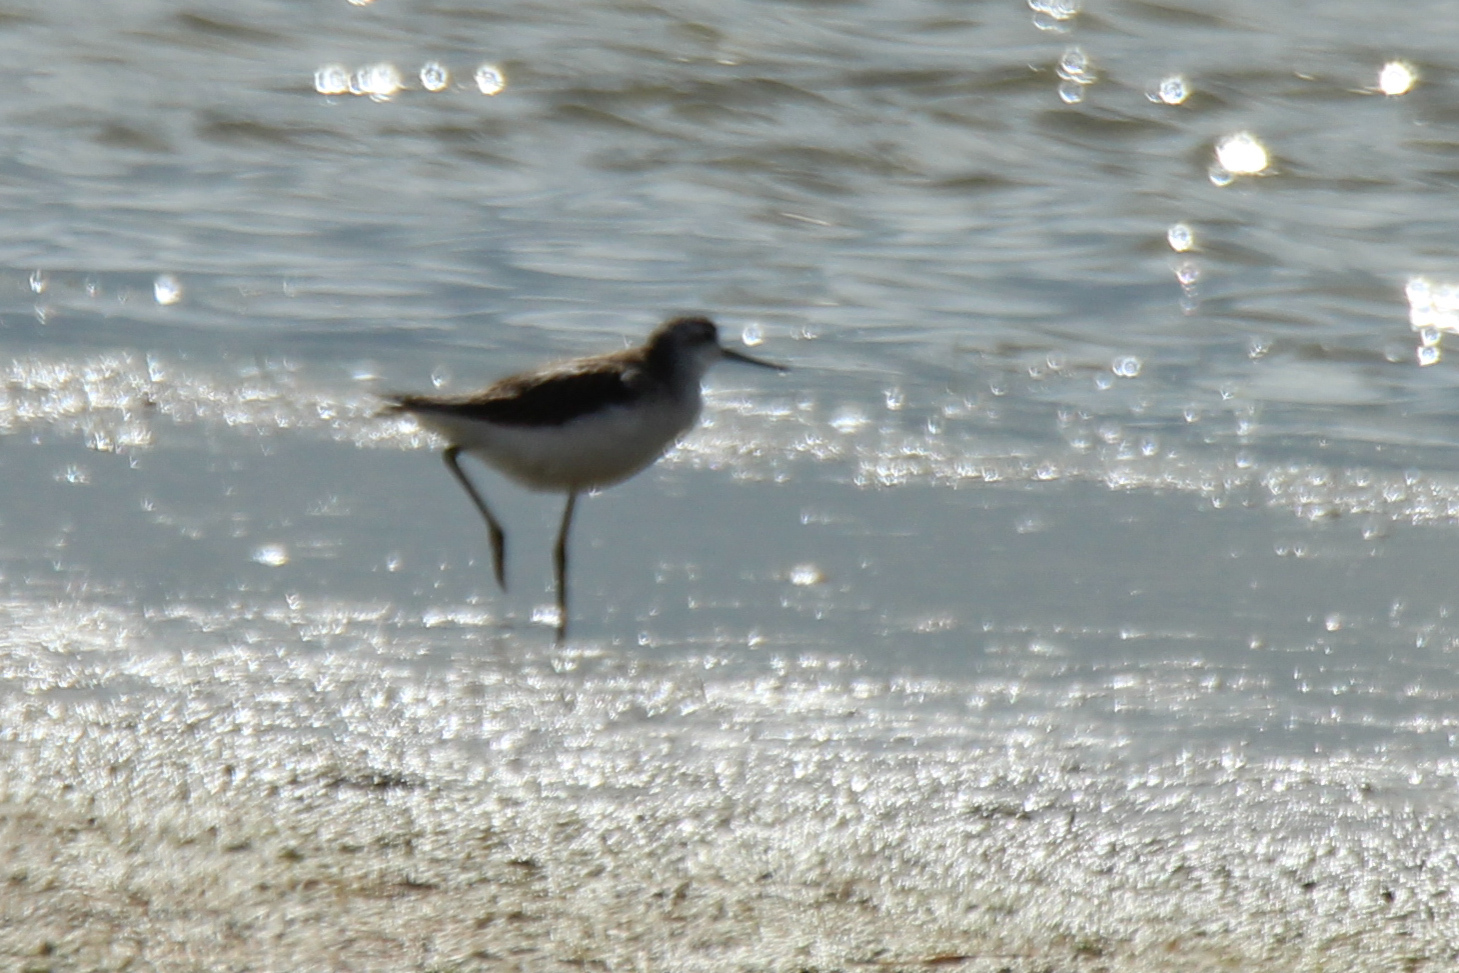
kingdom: Animalia
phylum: Chordata
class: Aves
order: Charadriiformes
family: Scolopacidae
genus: Tringa
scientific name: Tringa stagnatilis
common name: Marsh sandpiper
